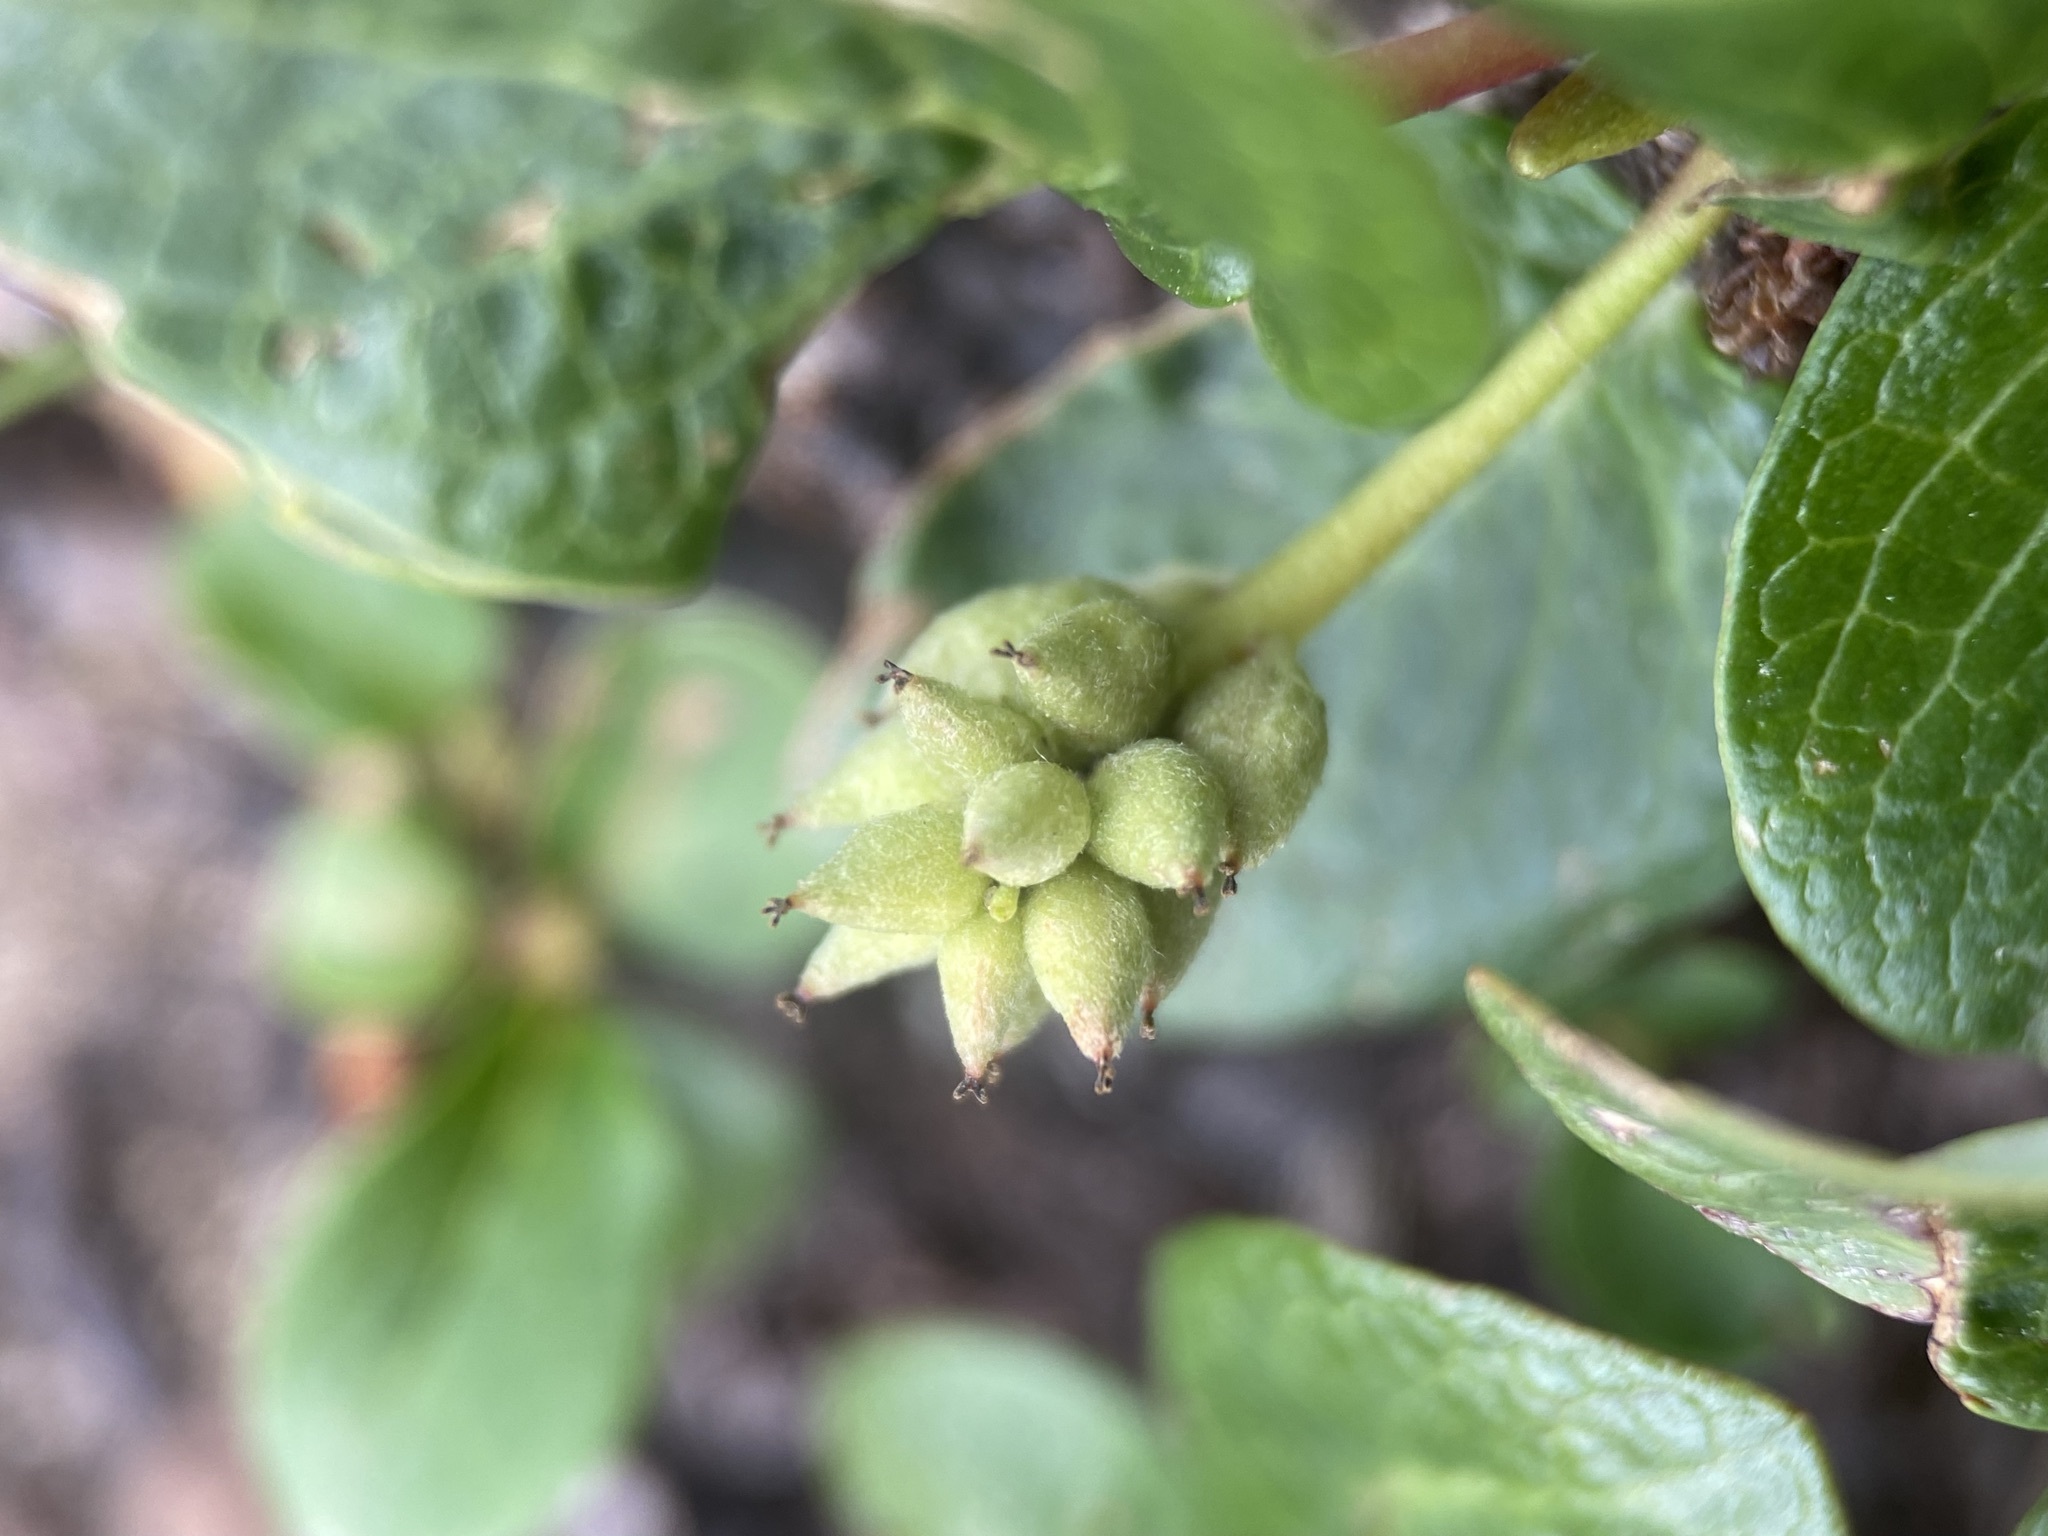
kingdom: Plantae
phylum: Tracheophyta
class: Magnoliopsida
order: Malpighiales
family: Salicaceae
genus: Salix
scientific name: Salix petrophila
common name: Rocky mountain willow
